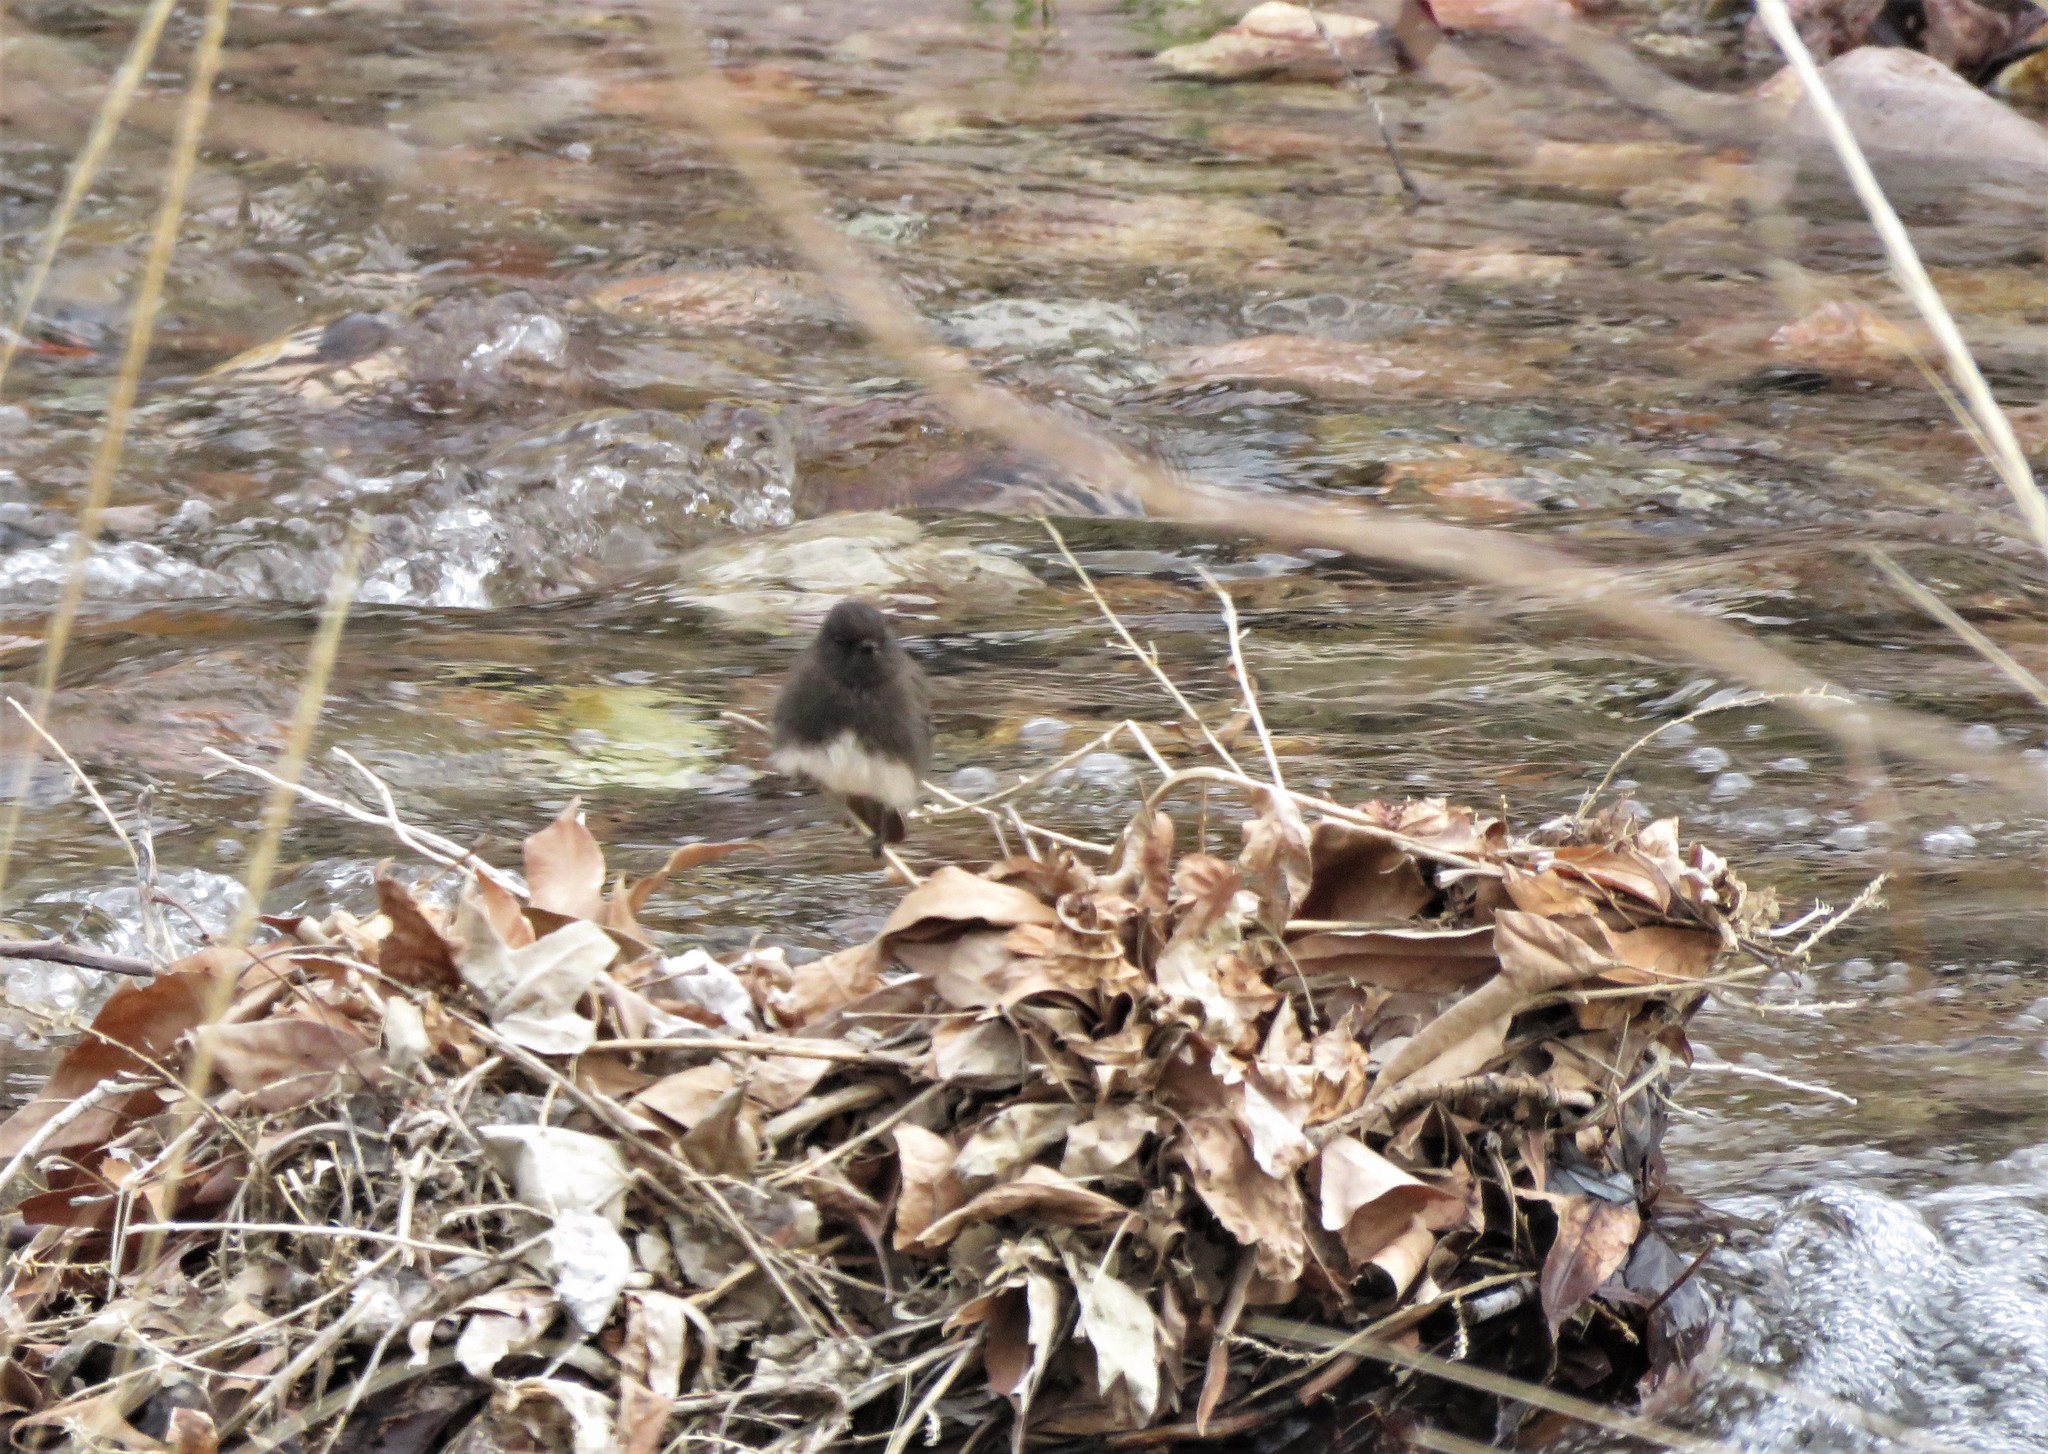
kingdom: Animalia
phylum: Chordata
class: Aves
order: Passeriformes
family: Tyrannidae
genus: Sayornis
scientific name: Sayornis nigricans
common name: Black phoebe
